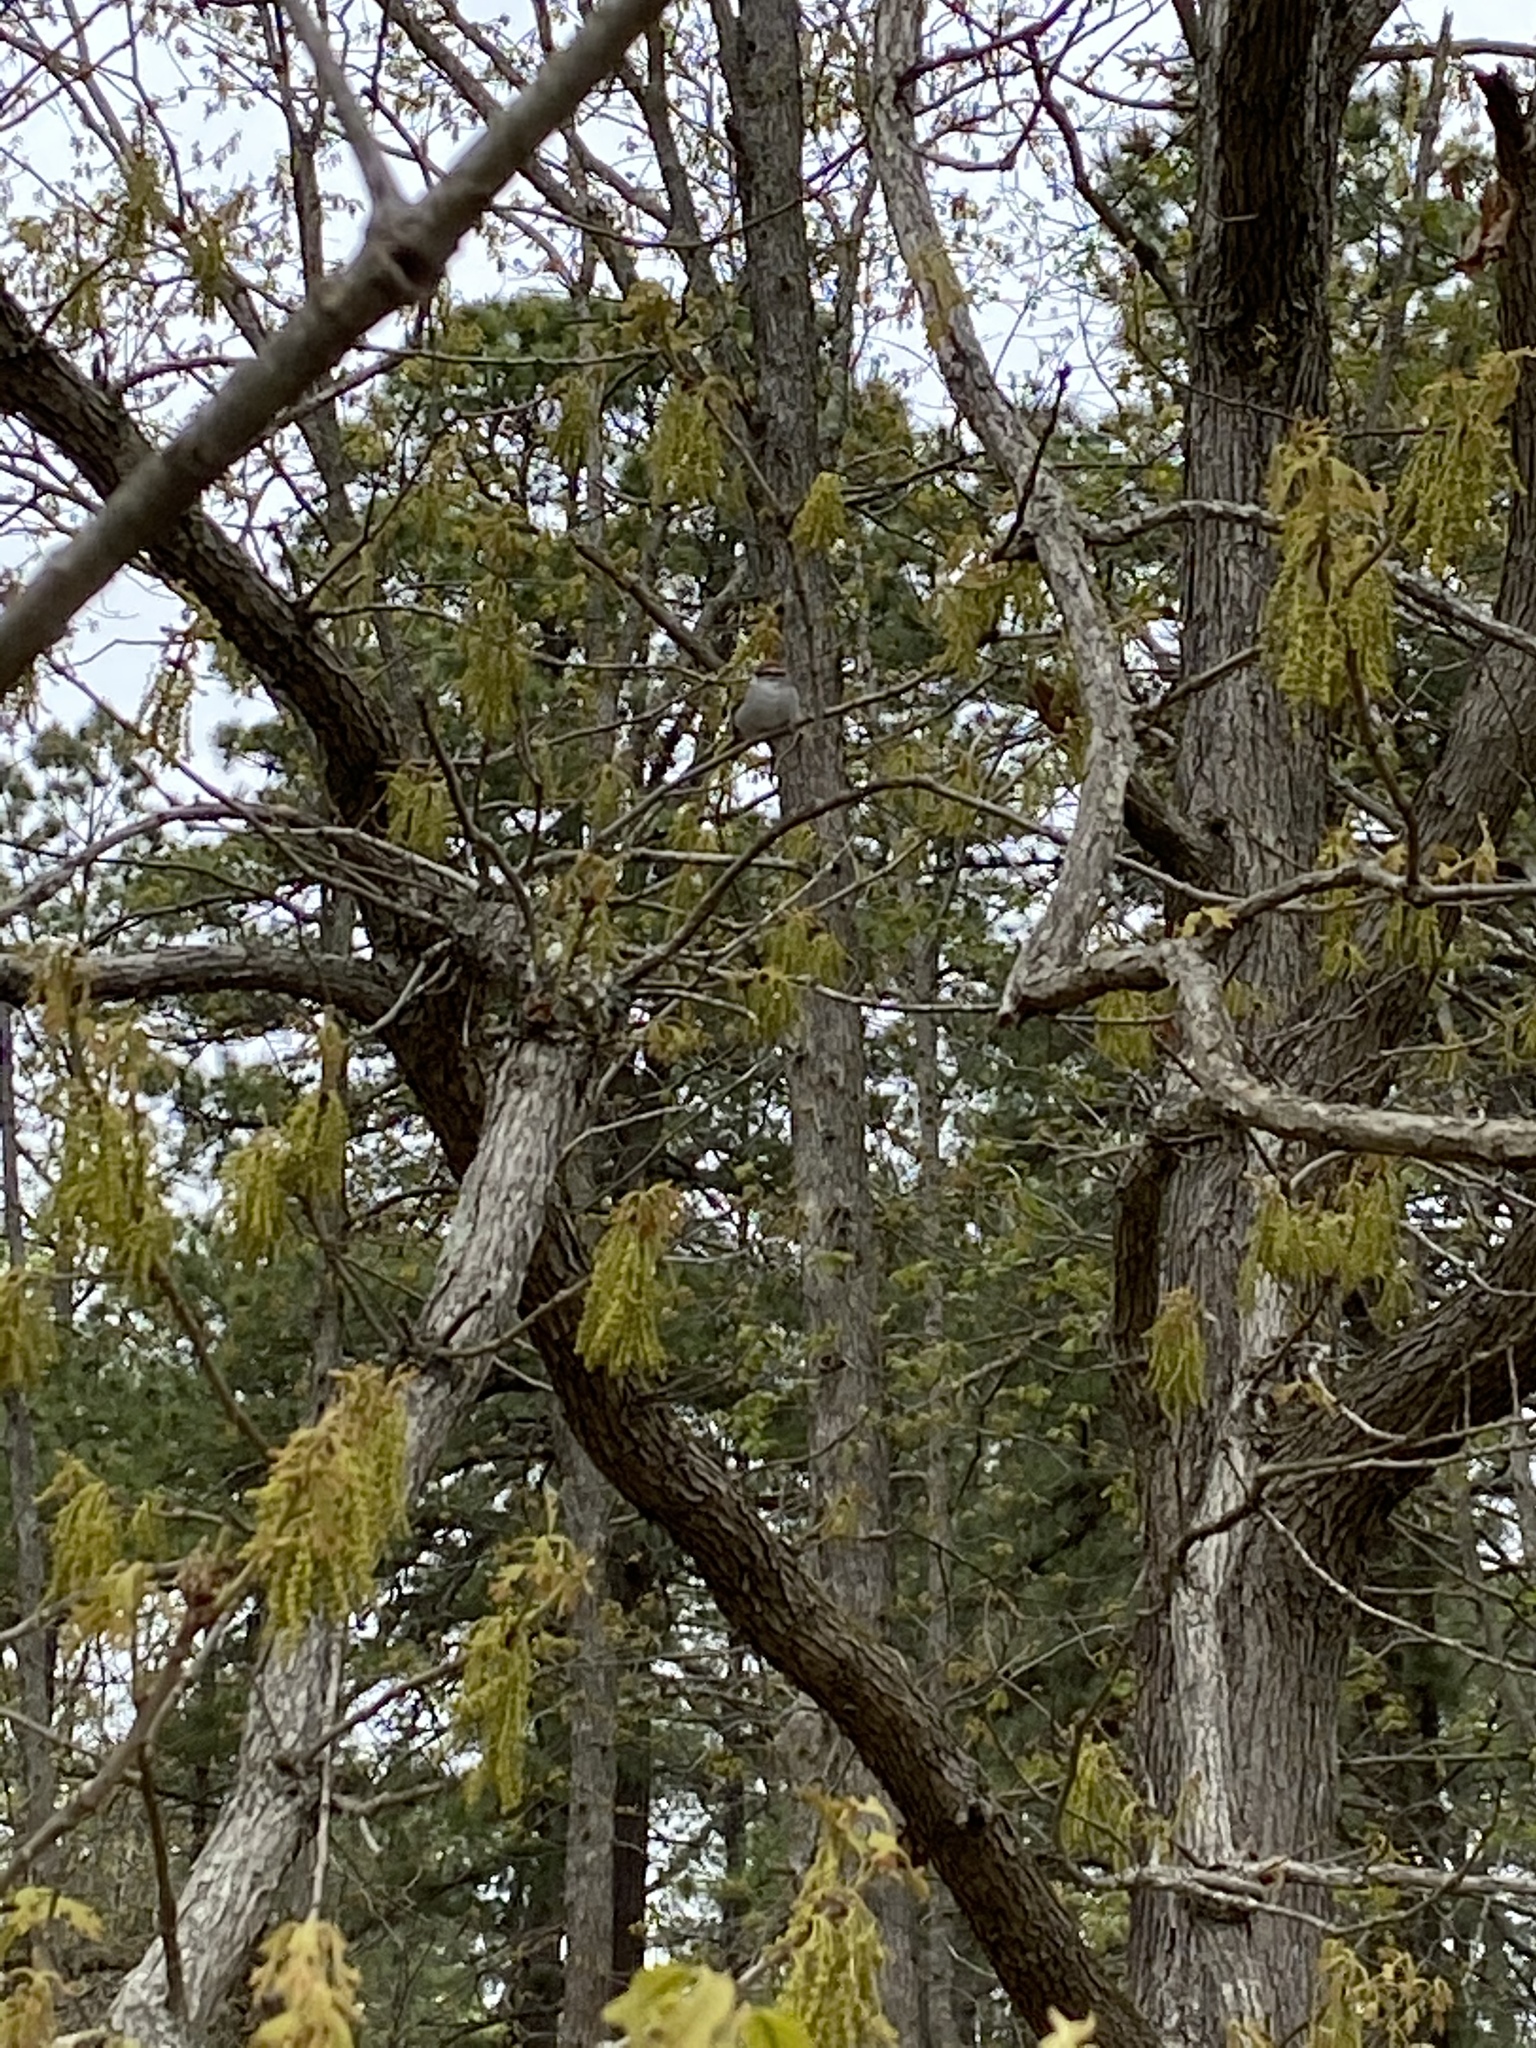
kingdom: Animalia
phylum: Chordata
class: Aves
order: Passeriformes
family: Passerellidae
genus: Spizella
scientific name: Spizella passerina
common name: Chipping sparrow
